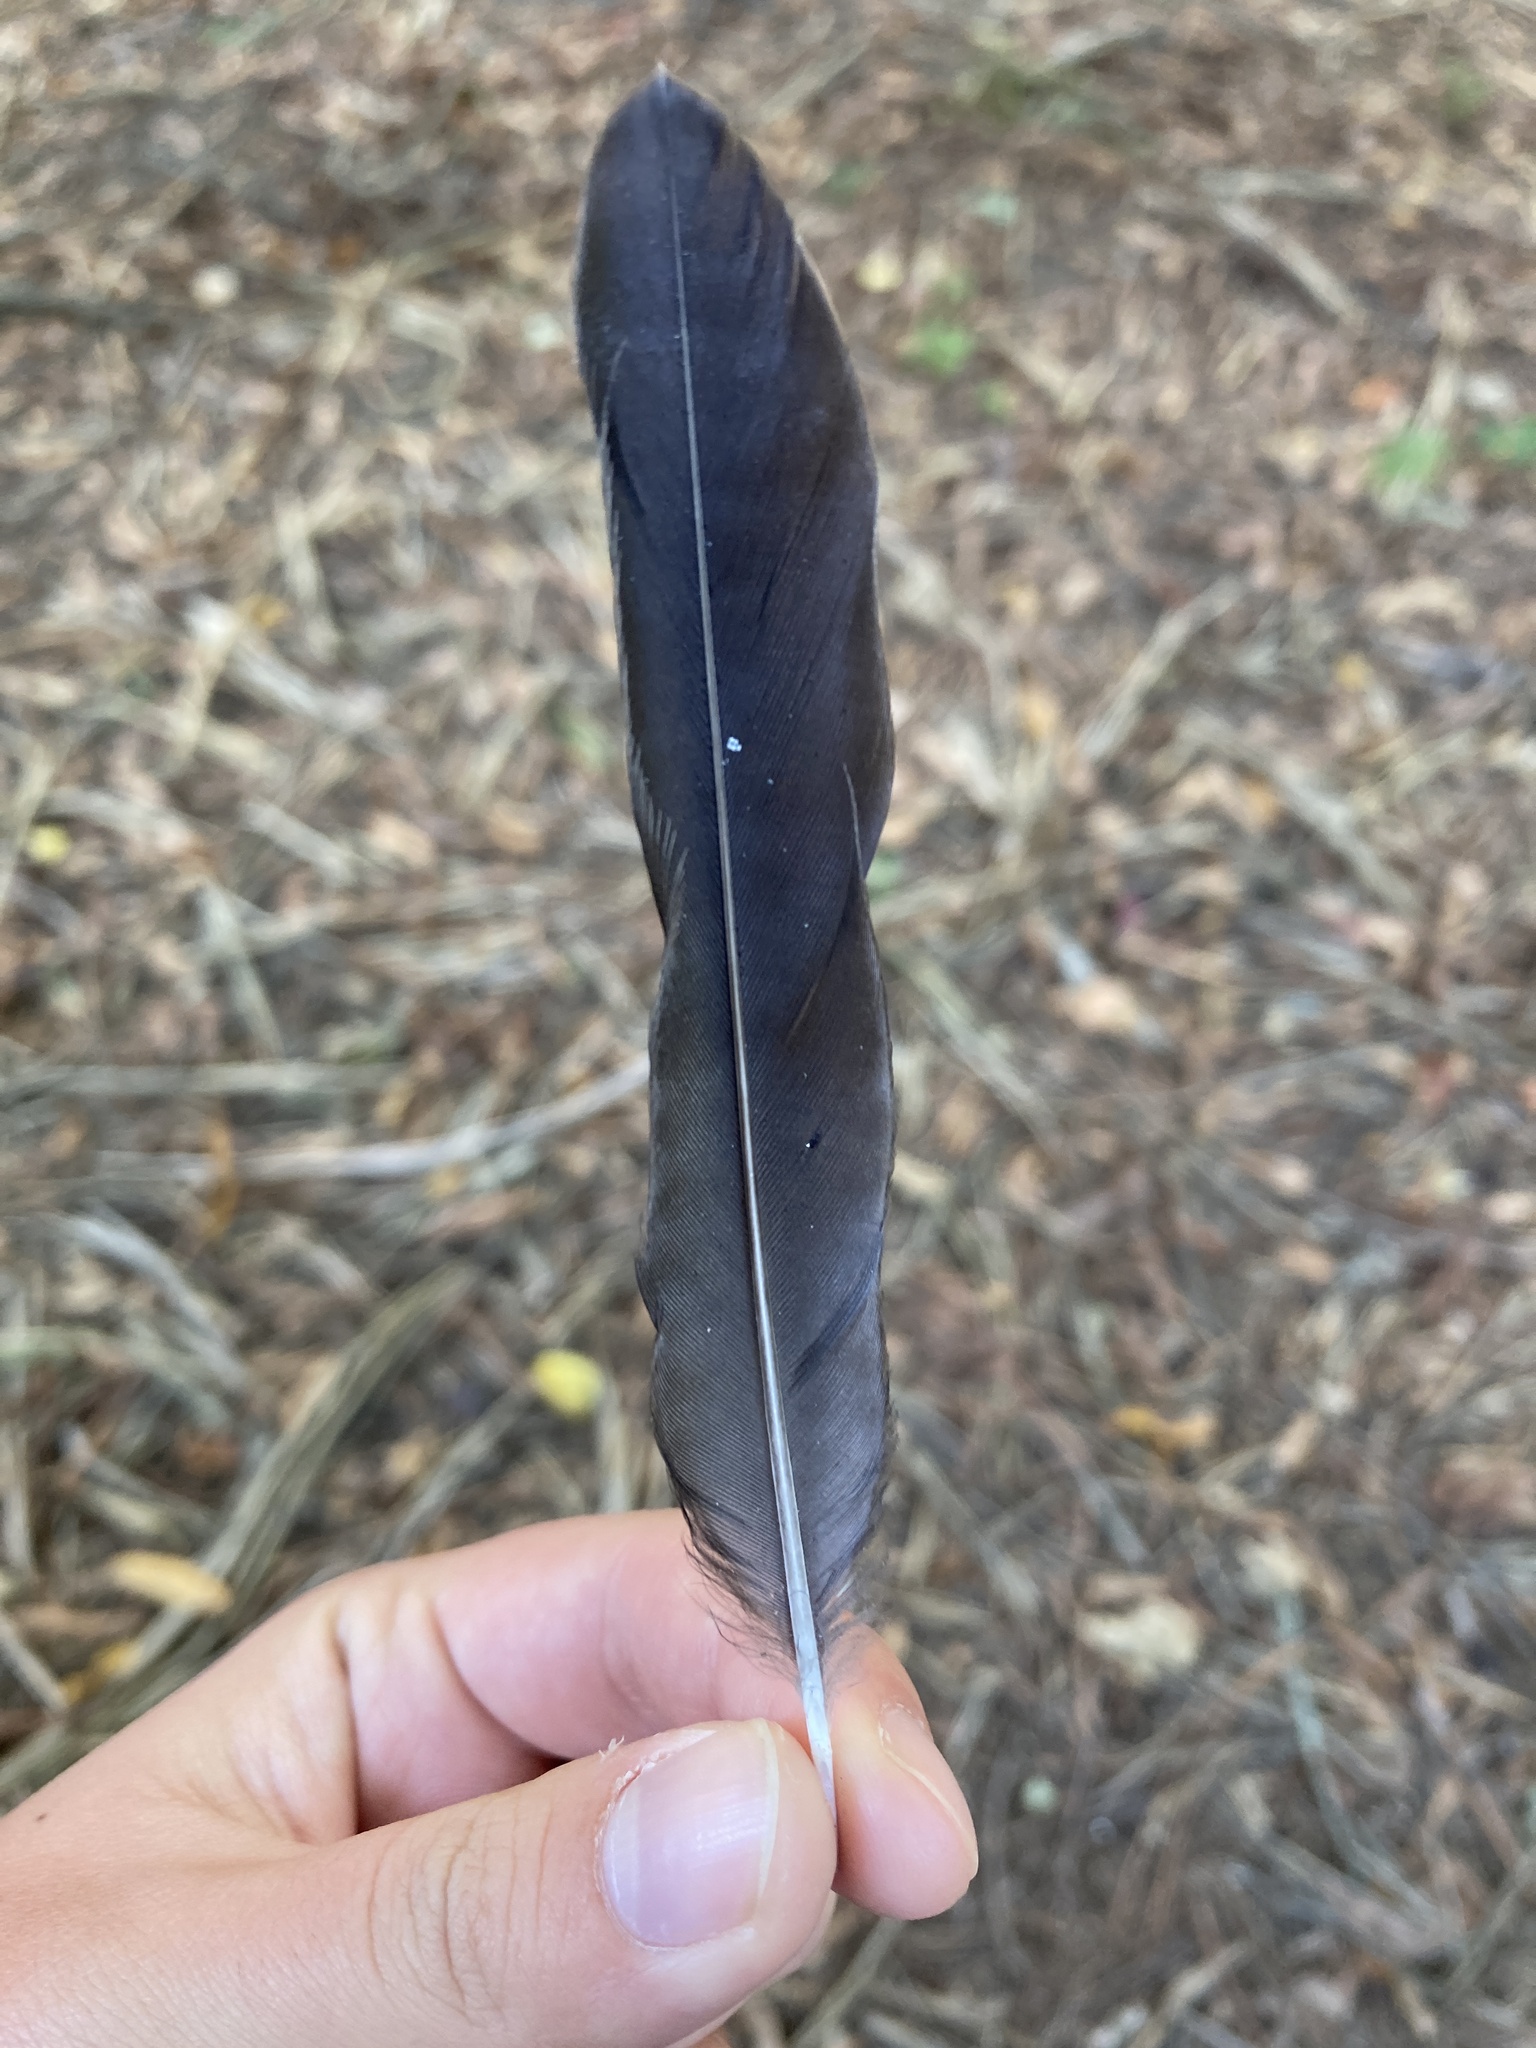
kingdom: Animalia
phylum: Chordata
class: Aves
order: Passeriformes
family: Turdidae
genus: Turdus
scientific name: Turdus migratorius
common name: American robin
